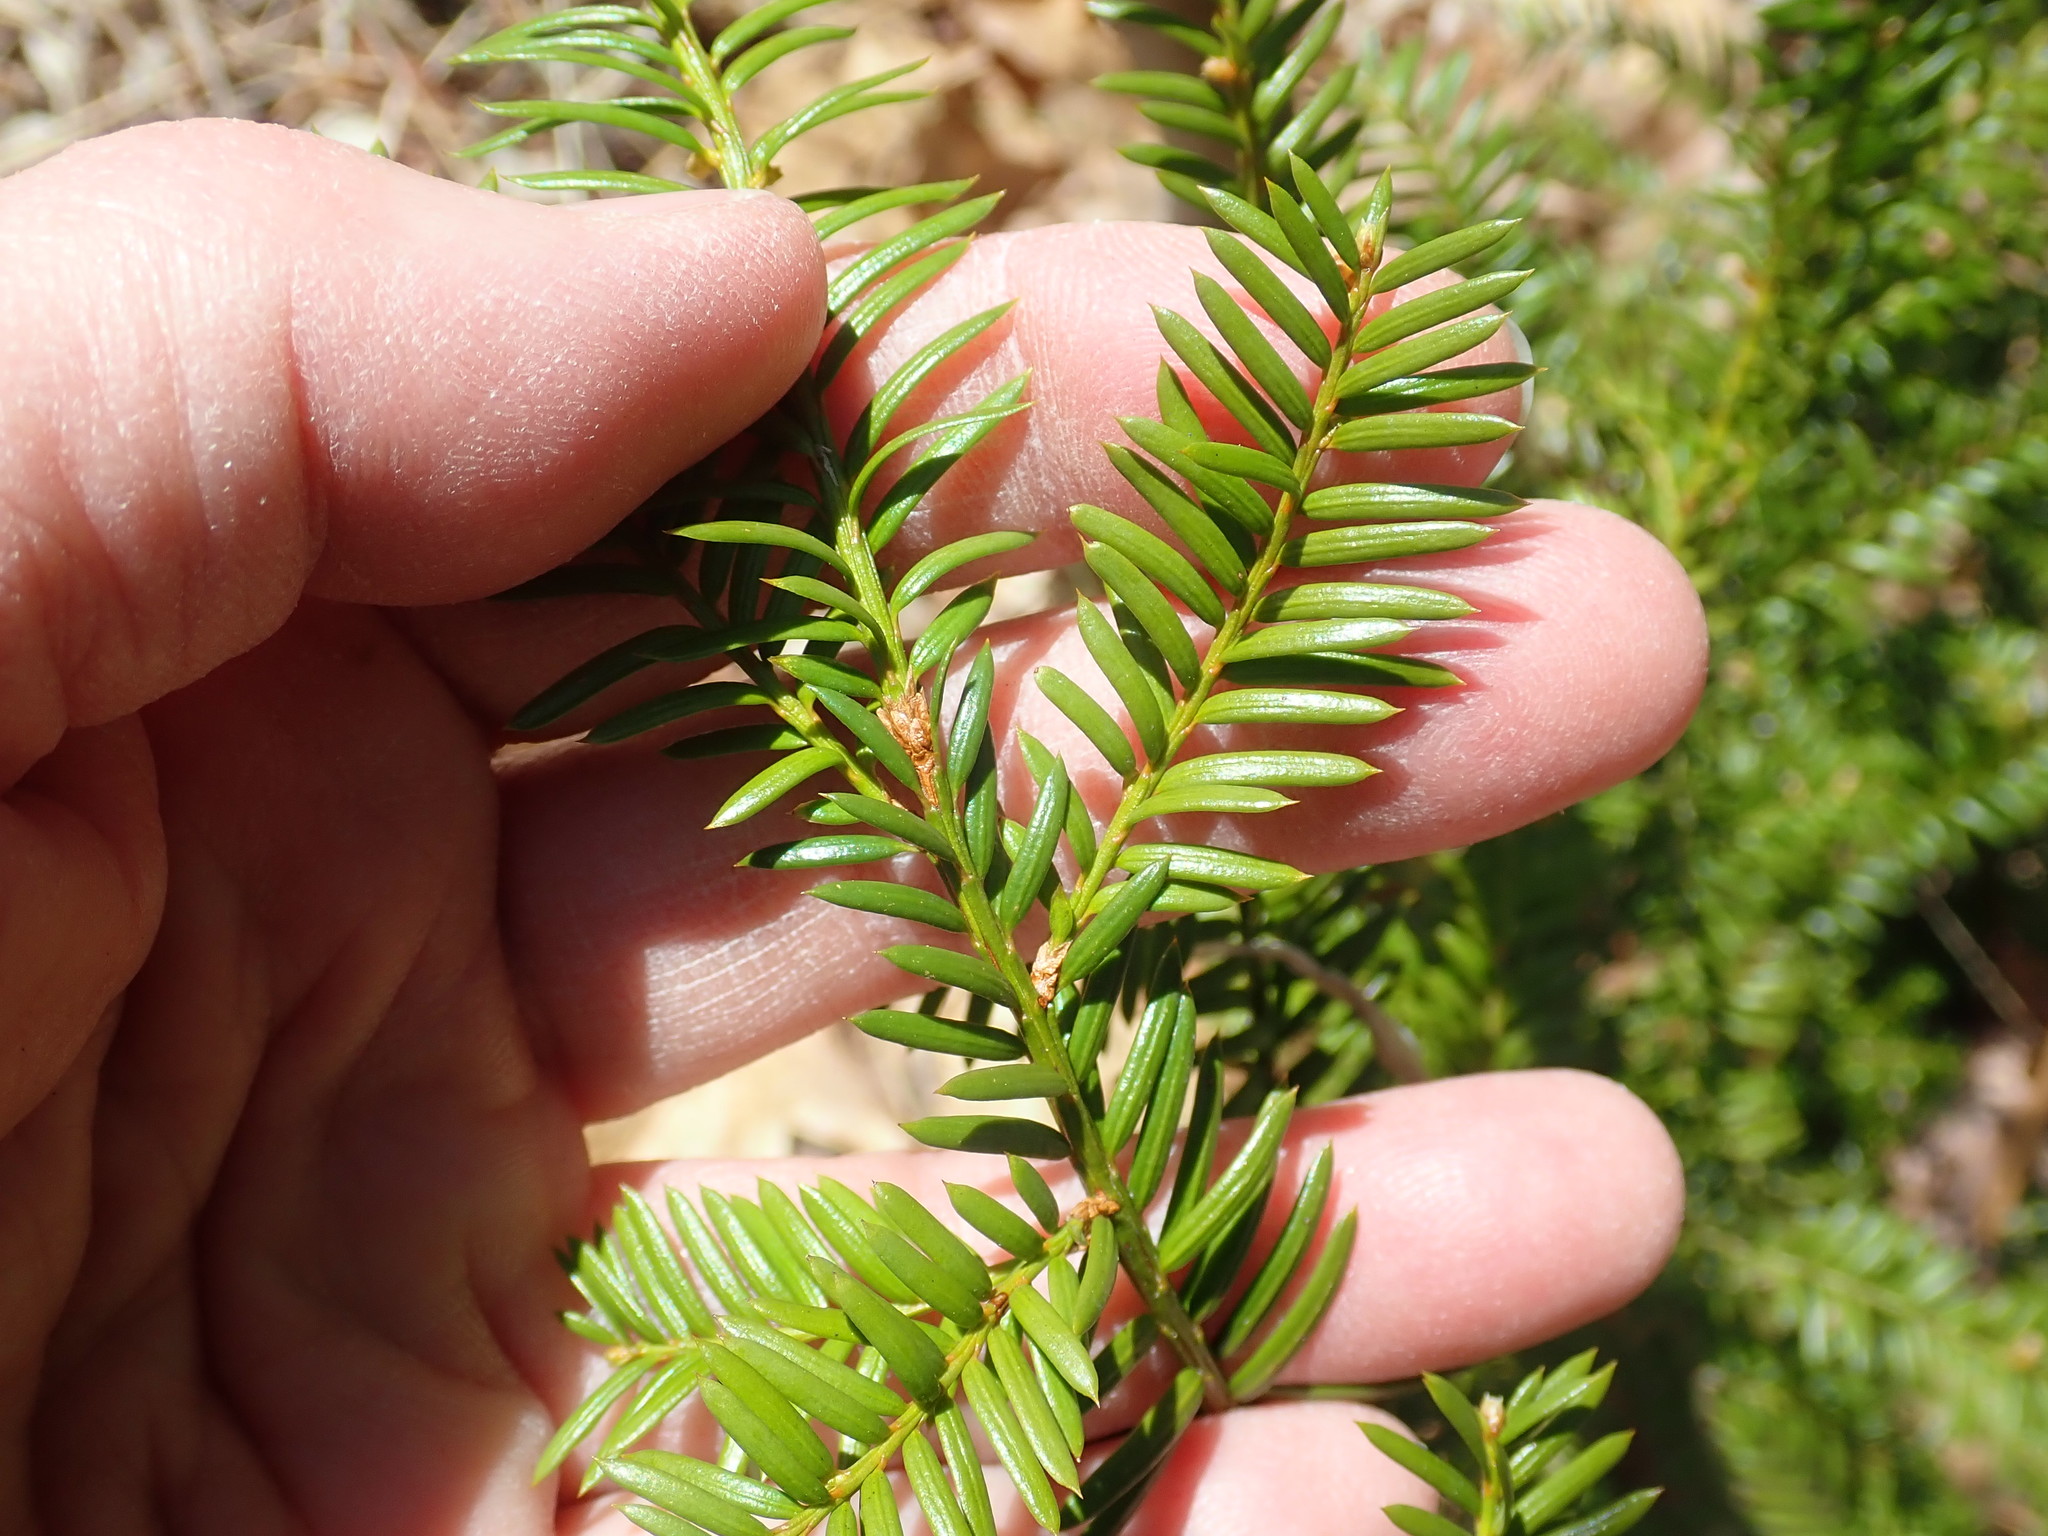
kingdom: Plantae
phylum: Tracheophyta
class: Pinopsida
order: Pinales
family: Taxaceae
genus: Taxus
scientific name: Taxus canadensis
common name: American yew
